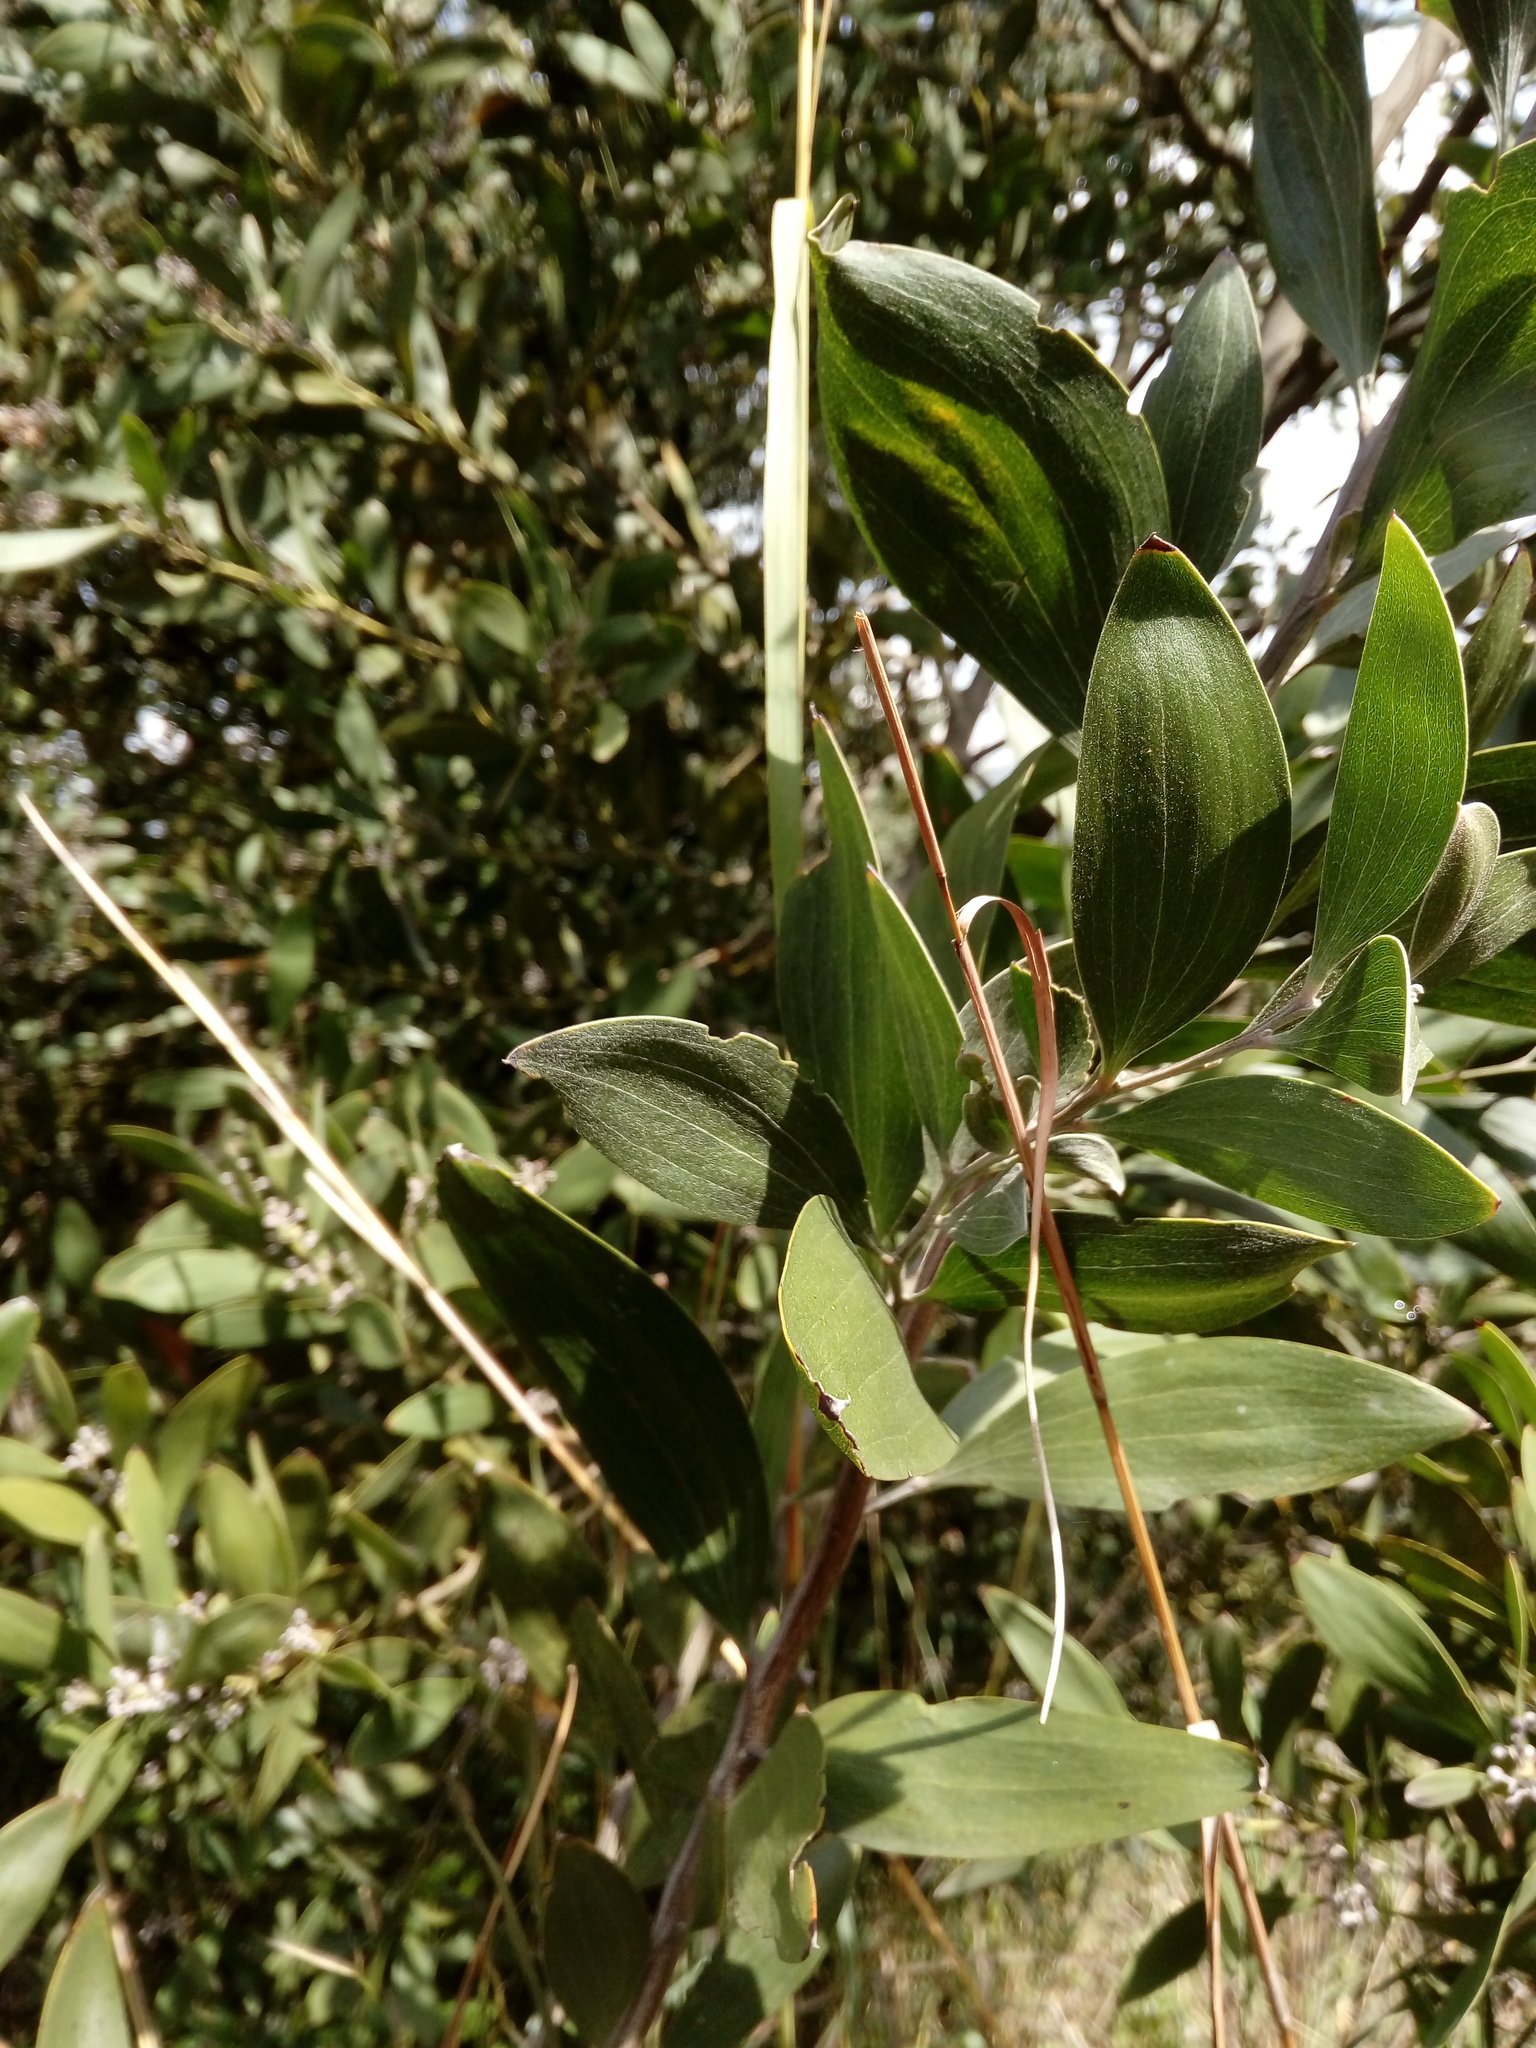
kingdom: Plantae
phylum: Tracheophyta
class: Magnoliopsida
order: Fabales
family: Fabaceae
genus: Acacia
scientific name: Acacia melanoxylon
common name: Blackwood
